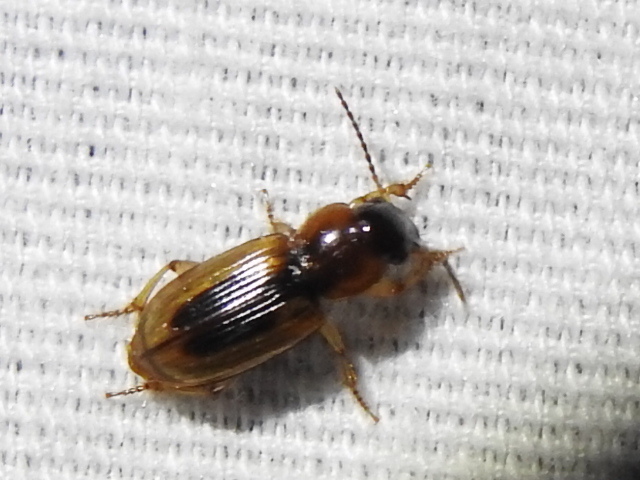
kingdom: Animalia
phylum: Arthropoda
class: Insecta
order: Coleoptera
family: Carabidae
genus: Stenolophus
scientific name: Stenolophus lecontei
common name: Leconte's seedcorn beetle
